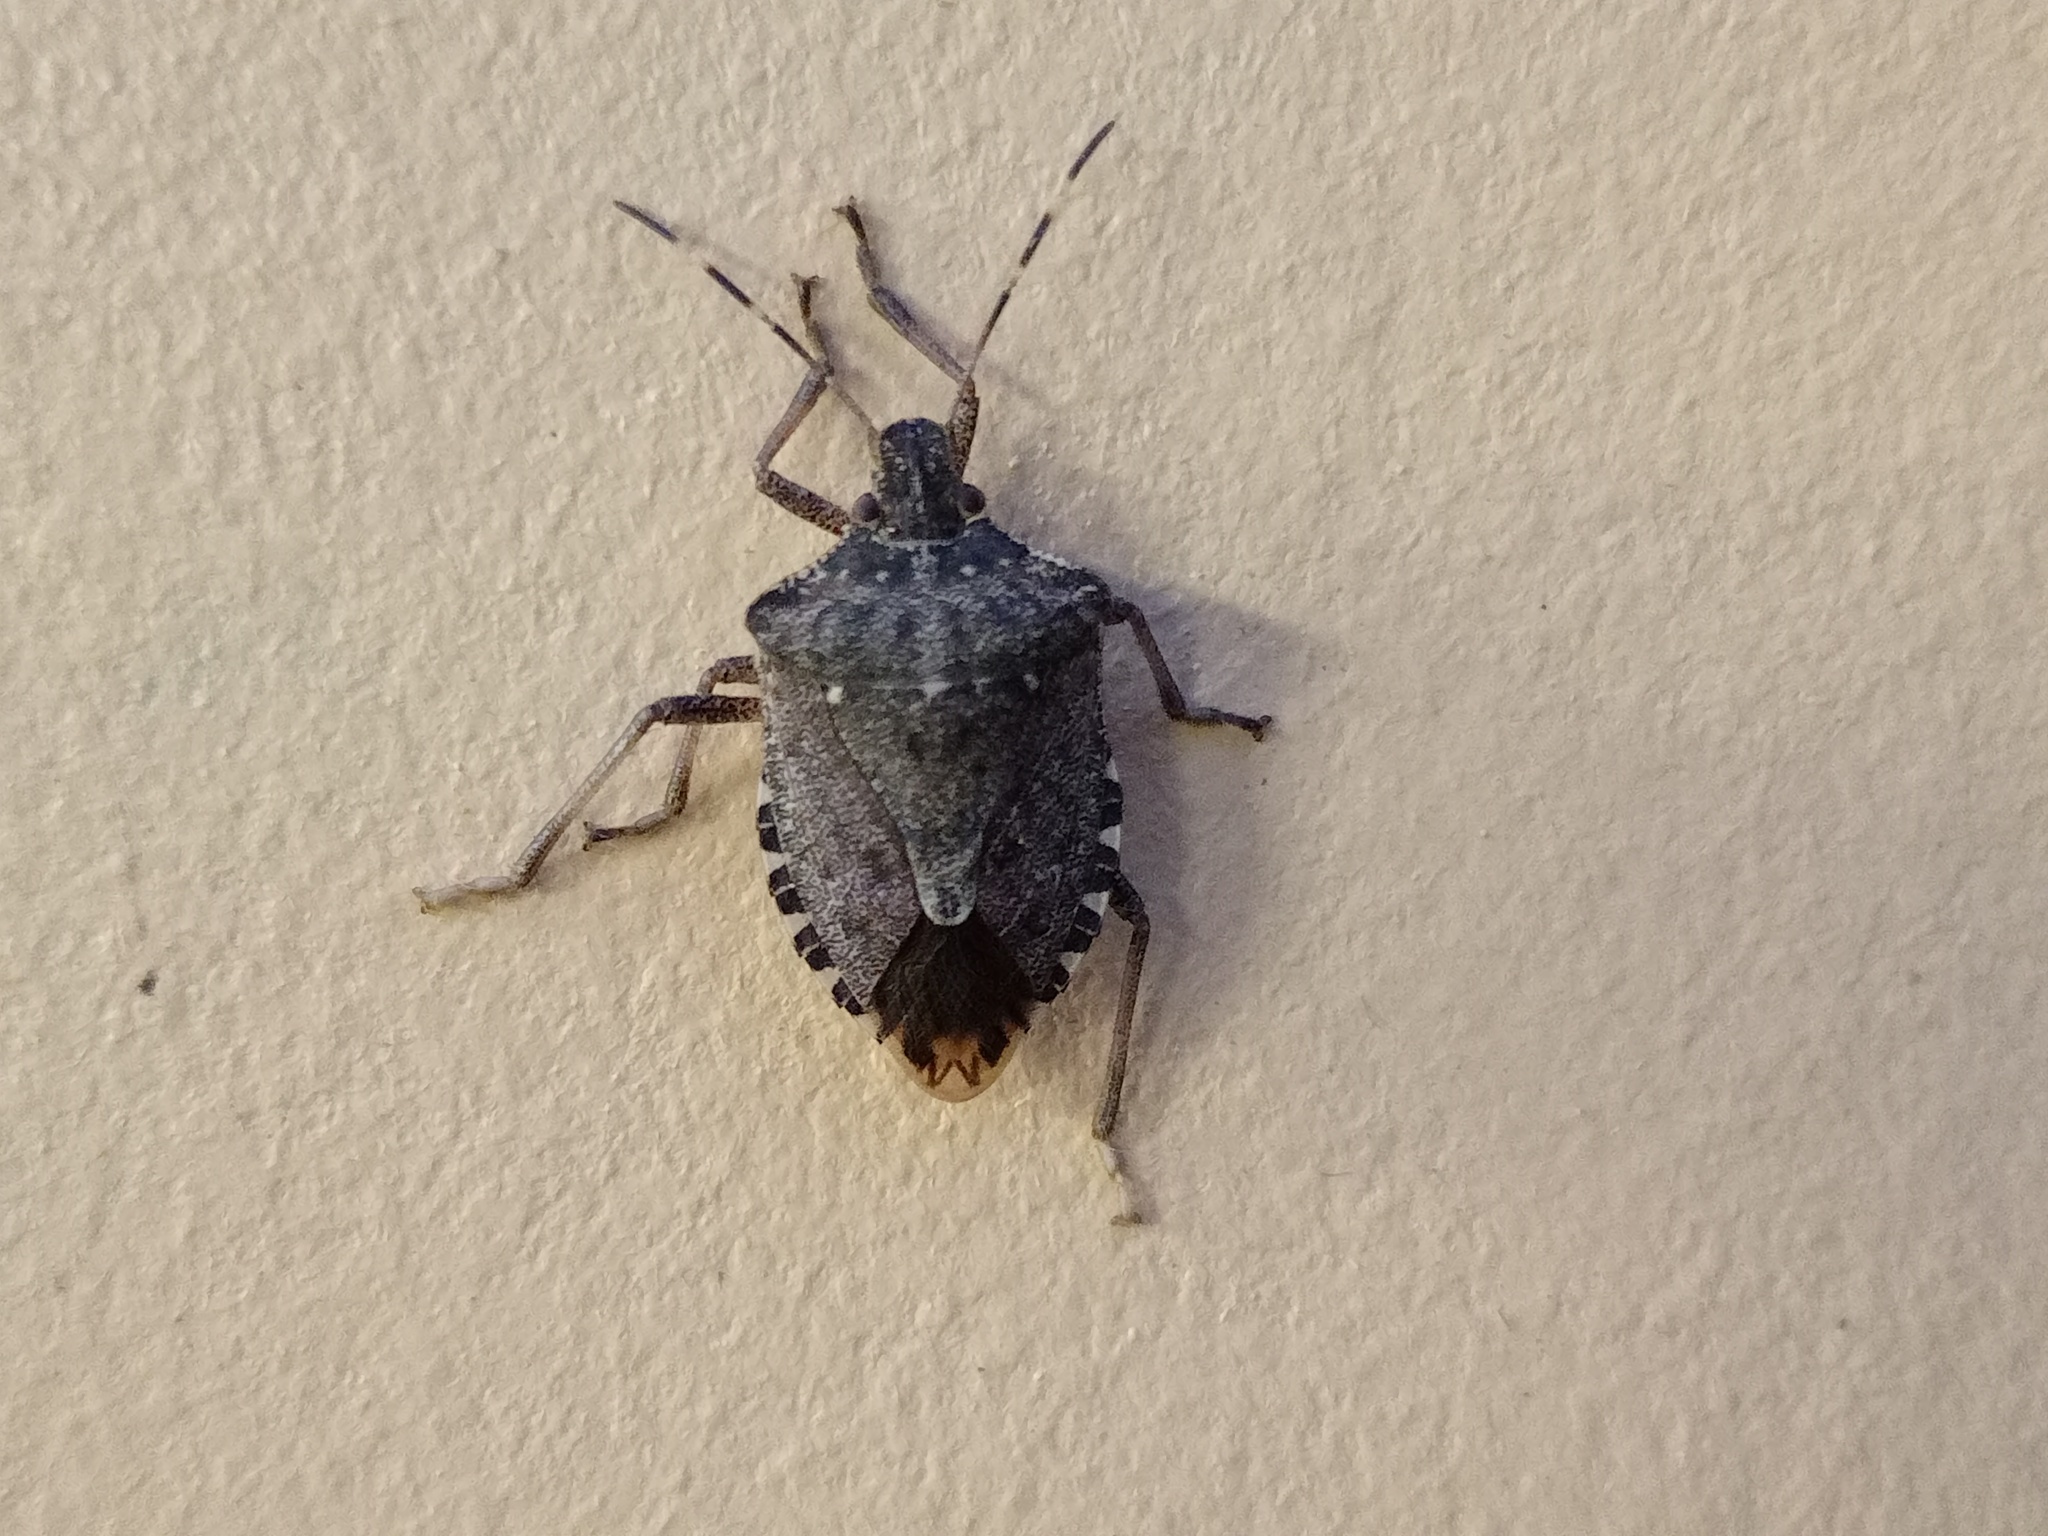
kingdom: Animalia
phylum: Arthropoda
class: Insecta
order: Hemiptera
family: Pentatomidae
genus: Halyomorpha
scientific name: Halyomorpha halys
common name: Brown marmorated stink bug
